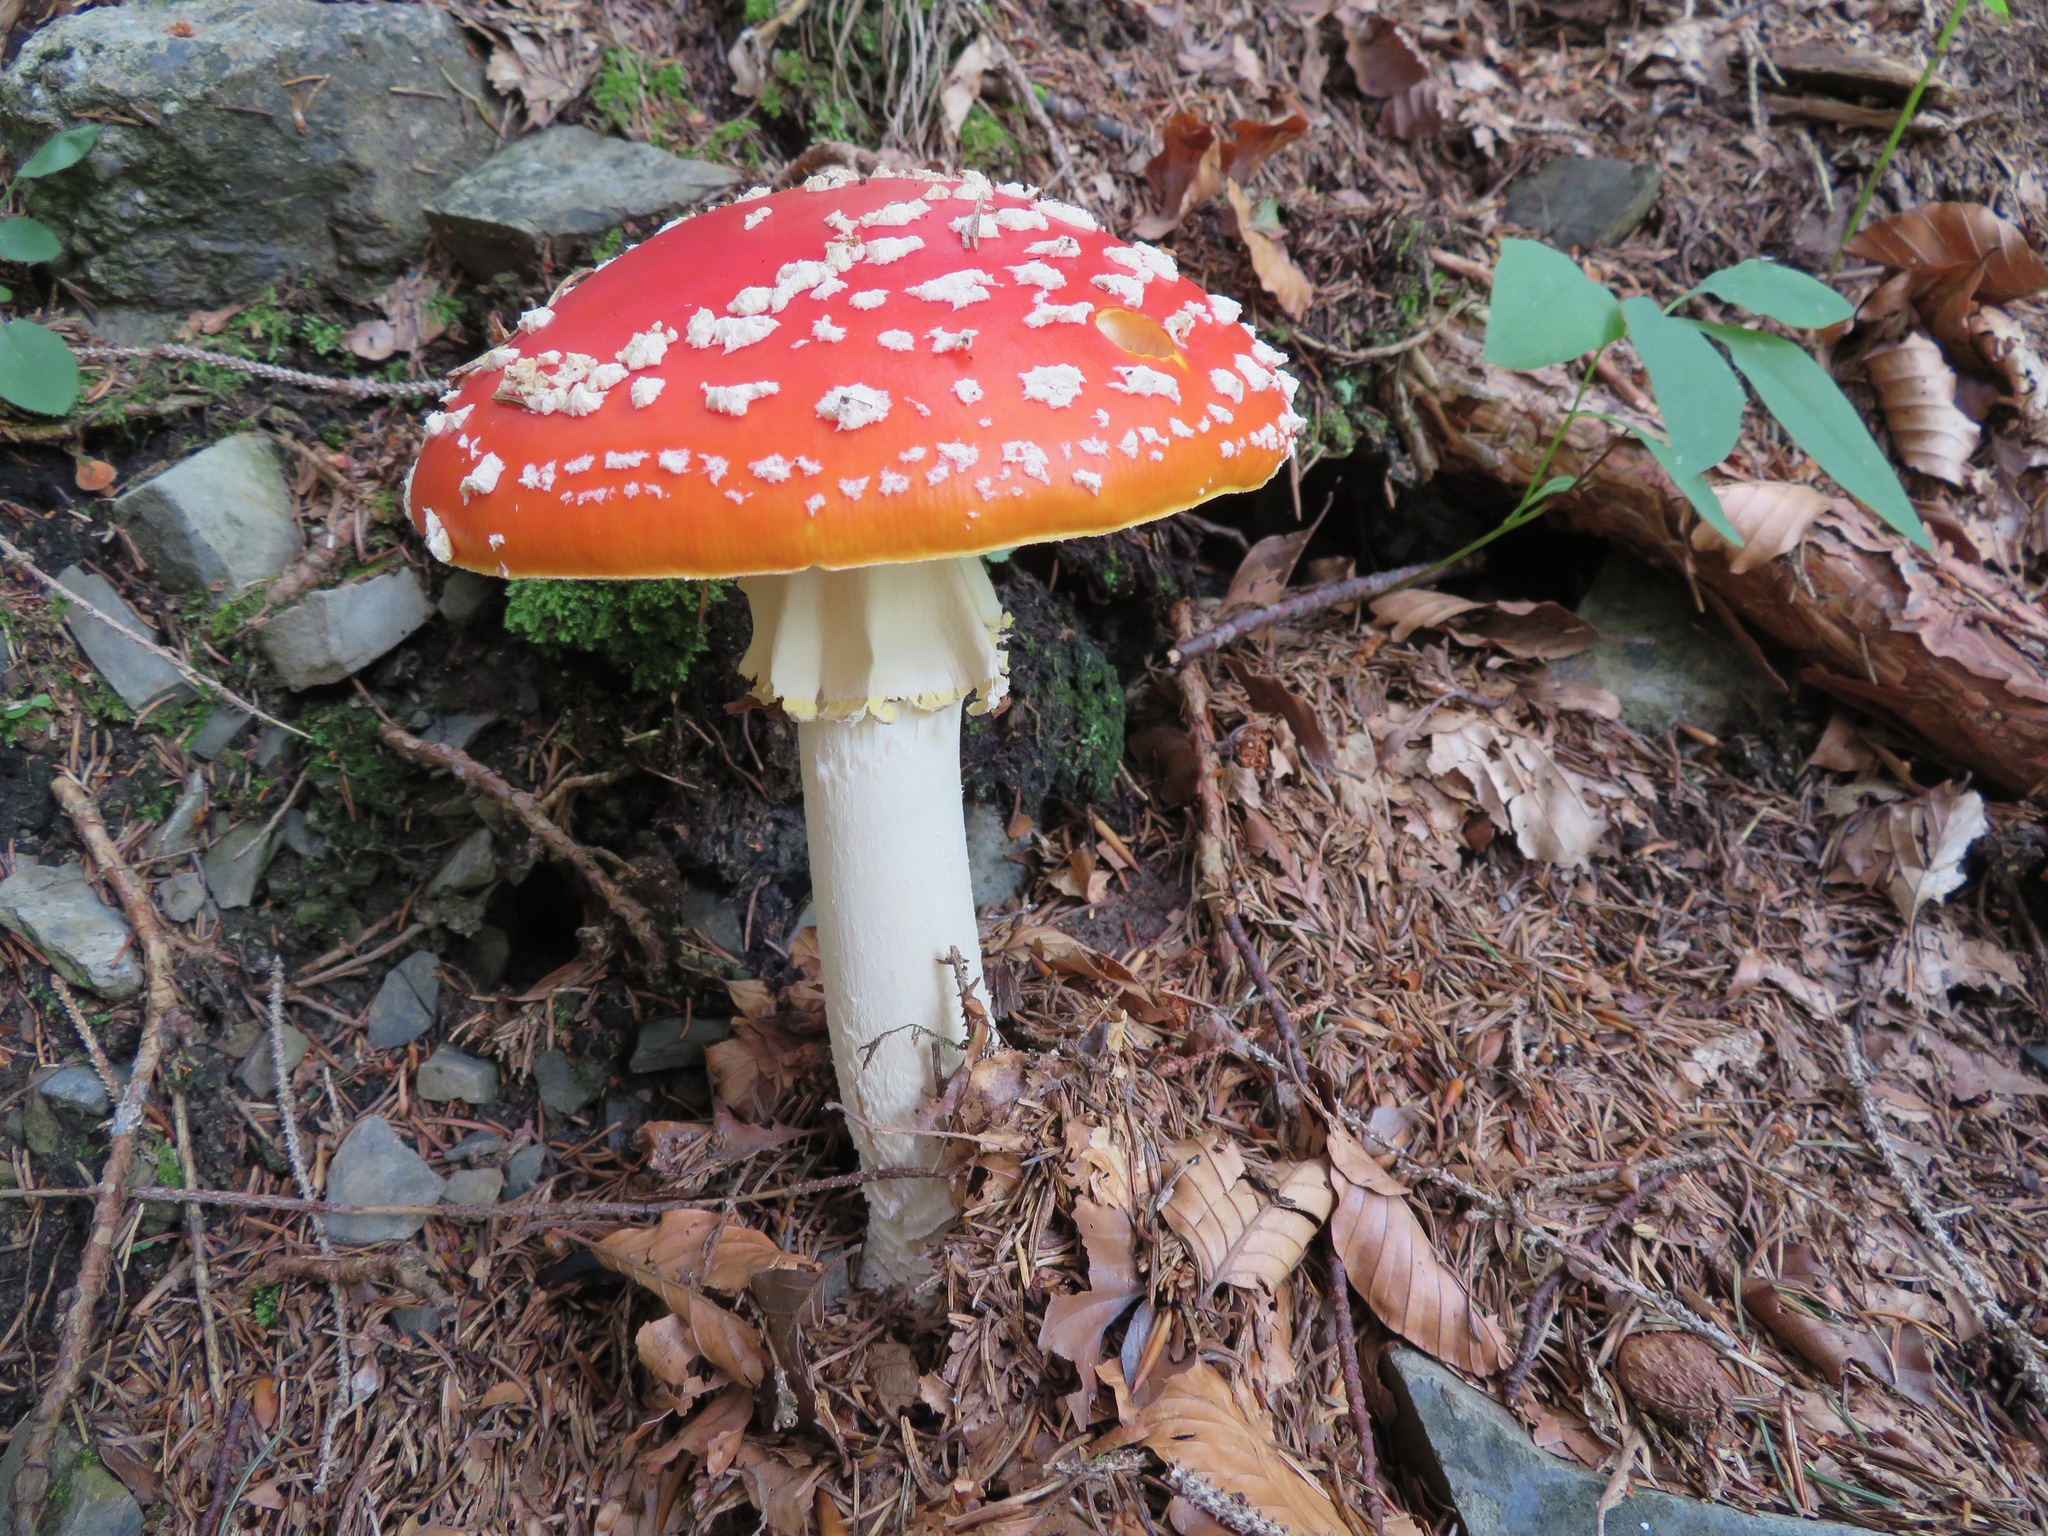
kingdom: Fungi
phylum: Basidiomycota
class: Agaricomycetes
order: Agaricales
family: Amanitaceae
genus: Amanita
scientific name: Amanita muscaria
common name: Fly agaric
